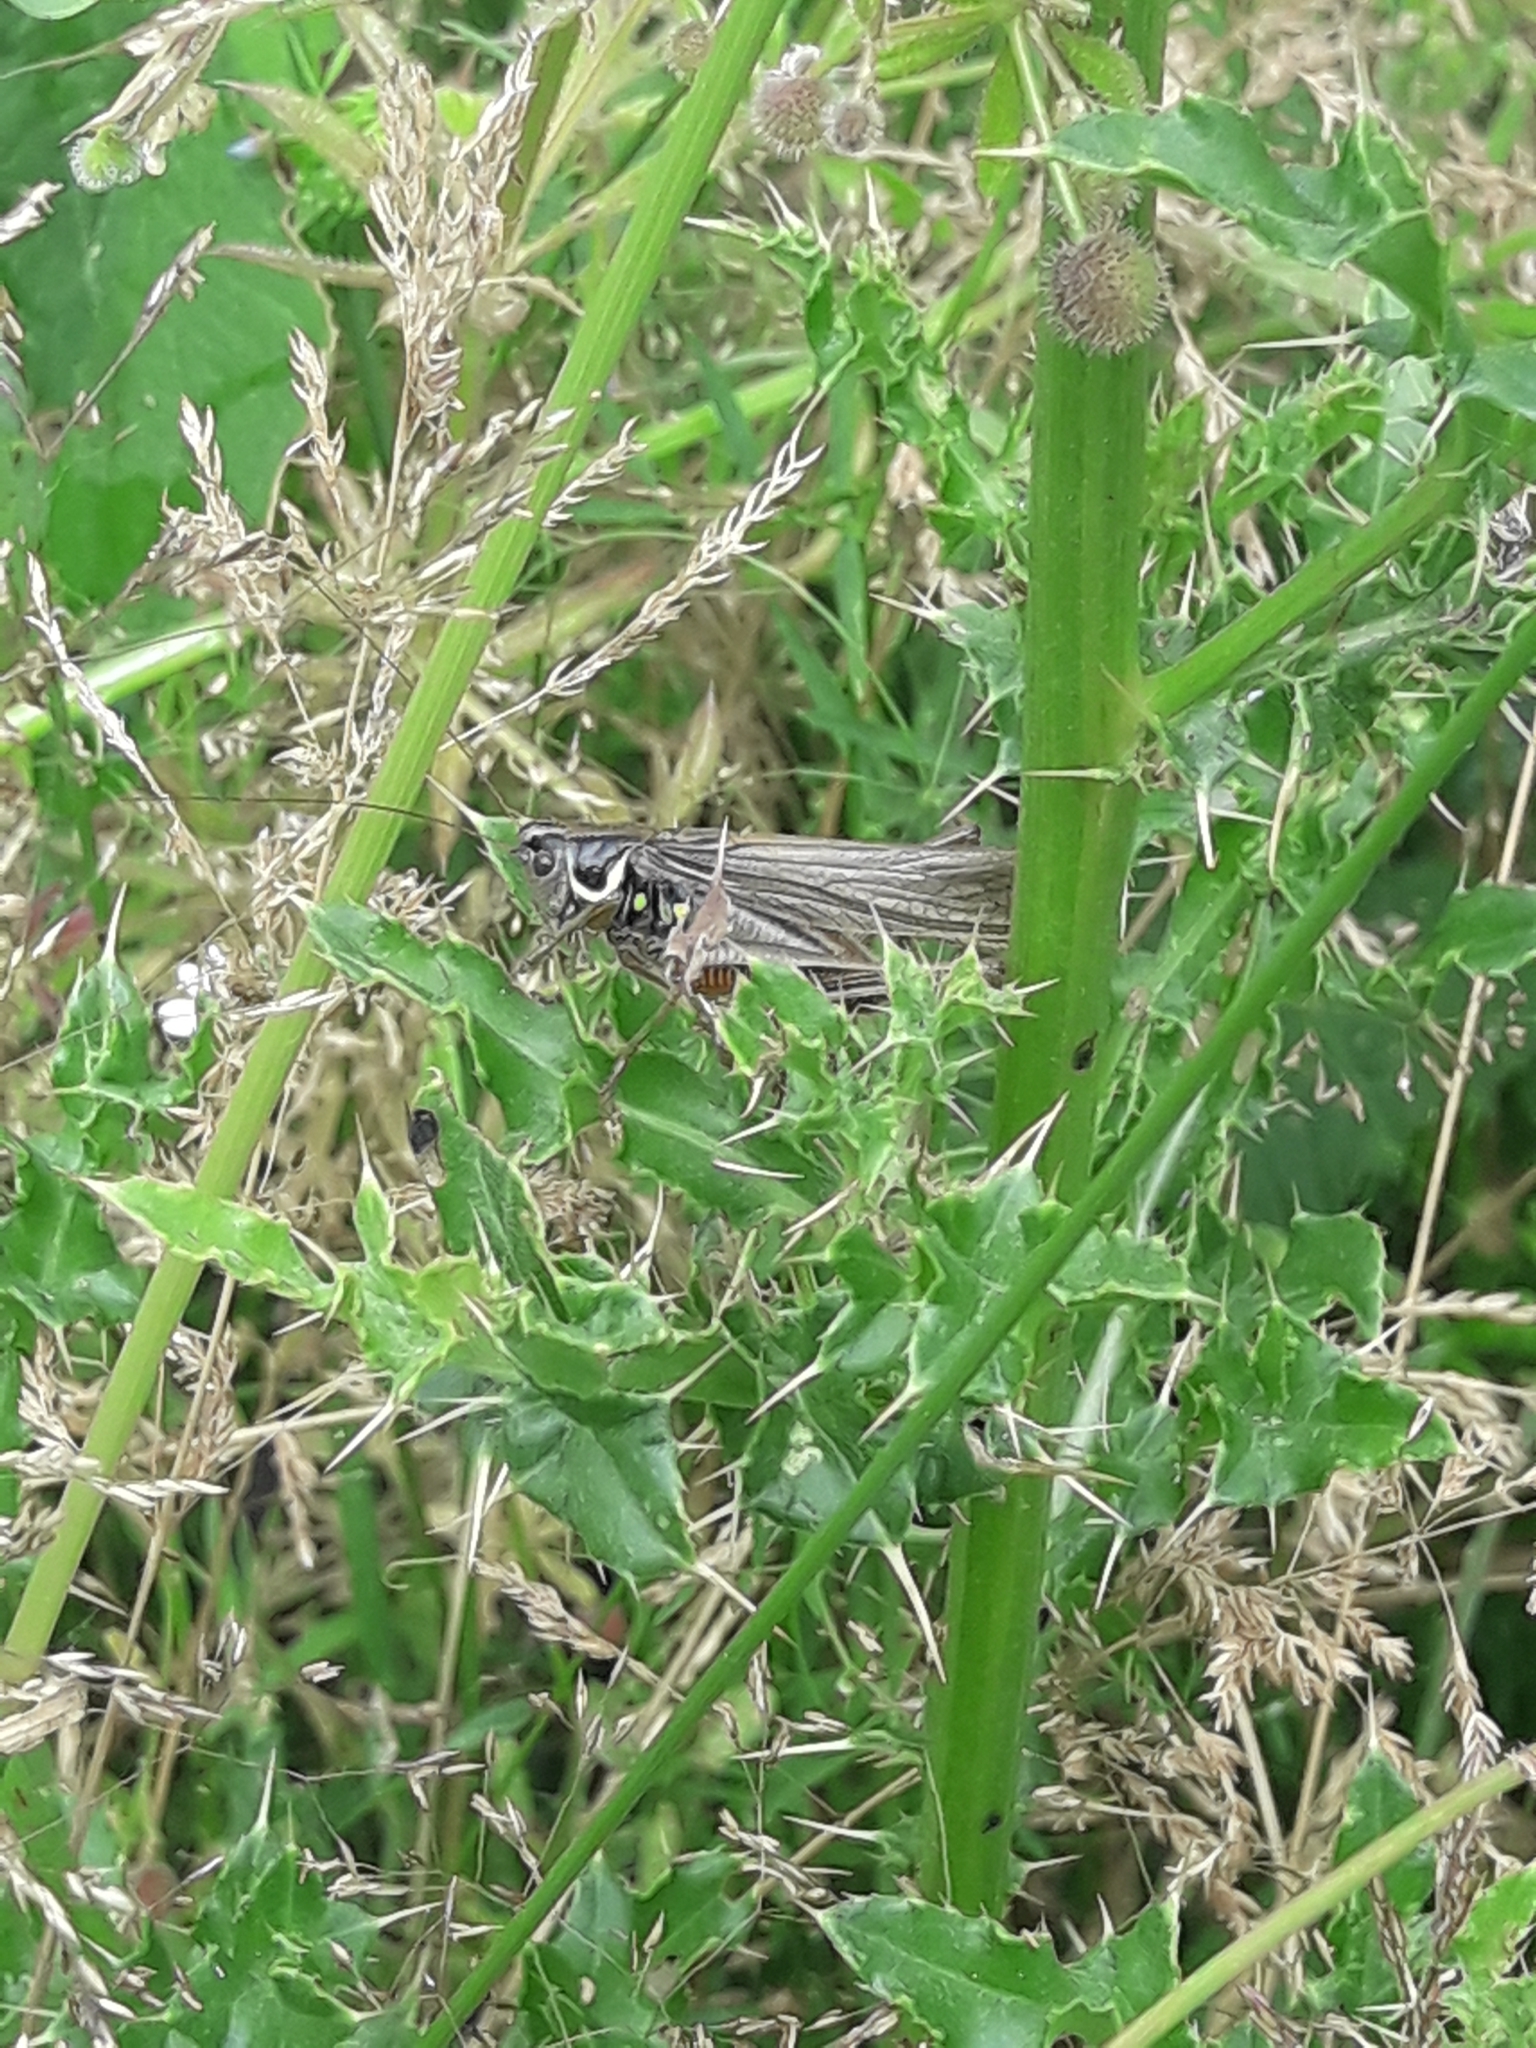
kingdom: Animalia
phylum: Arthropoda
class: Insecta
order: Orthoptera
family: Tettigoniidae
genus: Roeseliana
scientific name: Roeseliana roeselii
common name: Roesel's bush cricket
